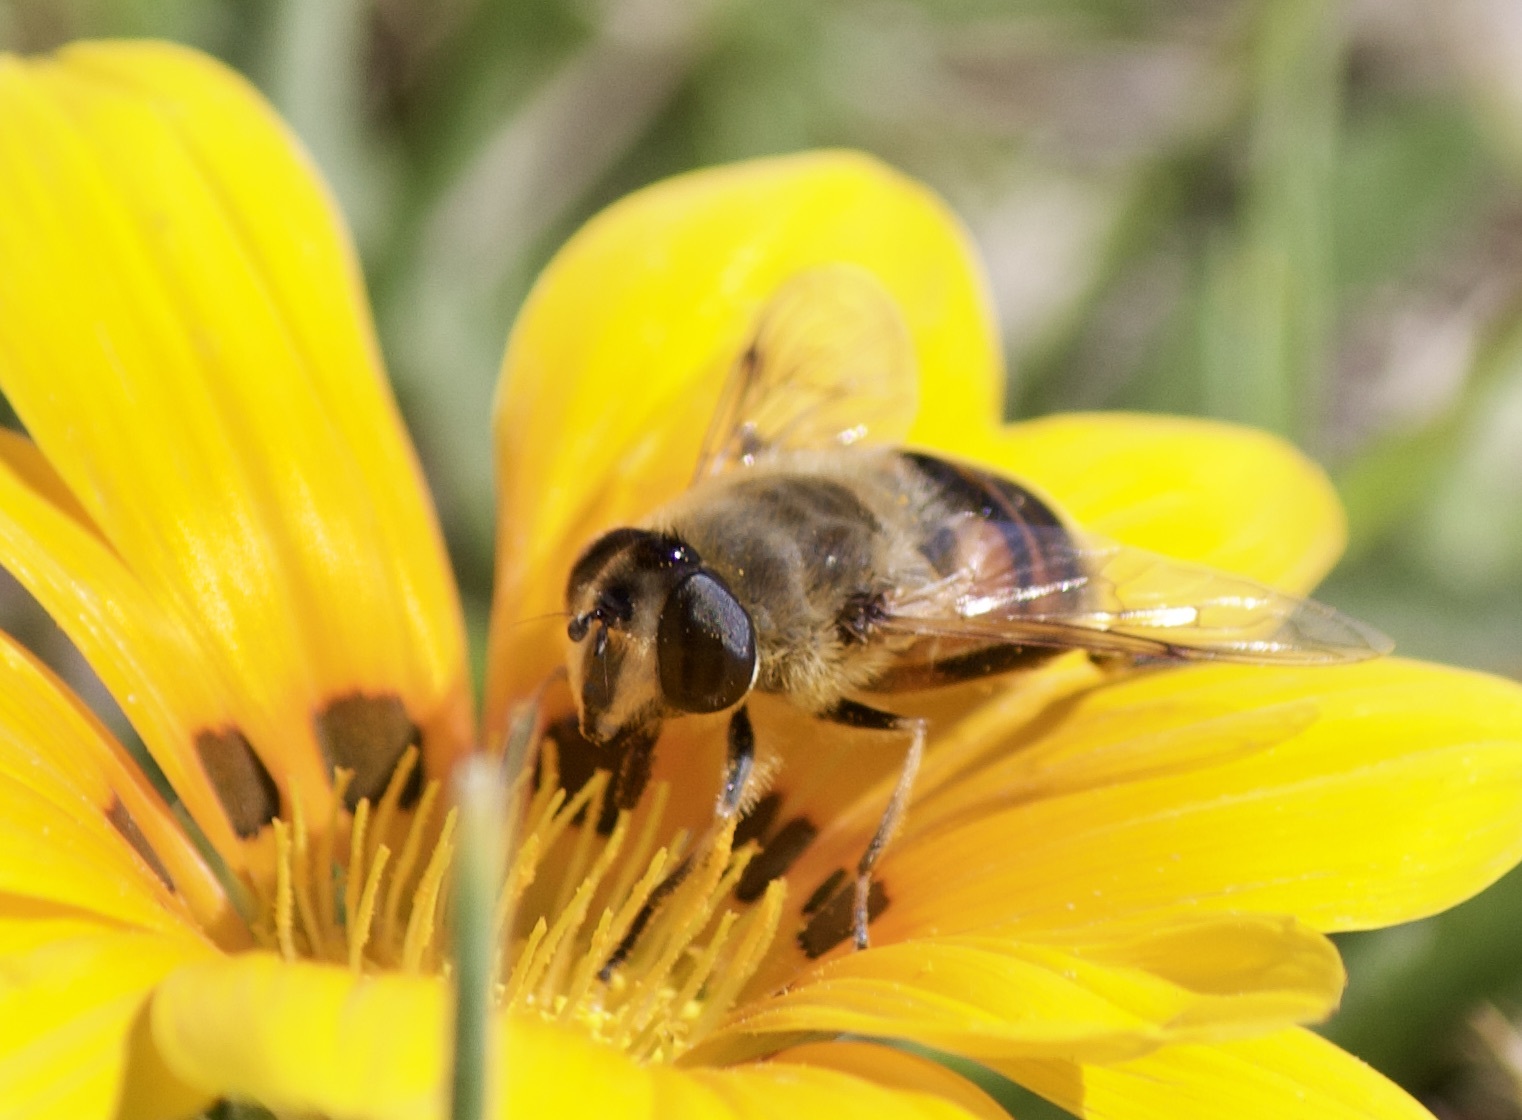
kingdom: Animalia
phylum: Arthropoda
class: Insecta
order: Diptera
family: Syrphidae
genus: Eristalis
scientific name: Eristalis tenax
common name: Drone fly
